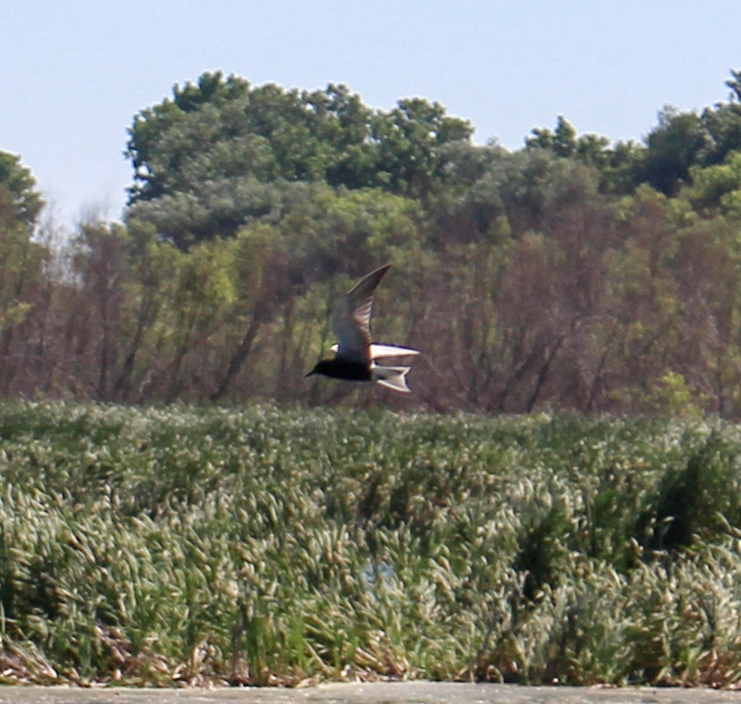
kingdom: Animalia
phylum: Chordata
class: Aves
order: Charadriiformes
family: Laridae
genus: Chlidonias
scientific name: Chlidonias niger
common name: Black tern
